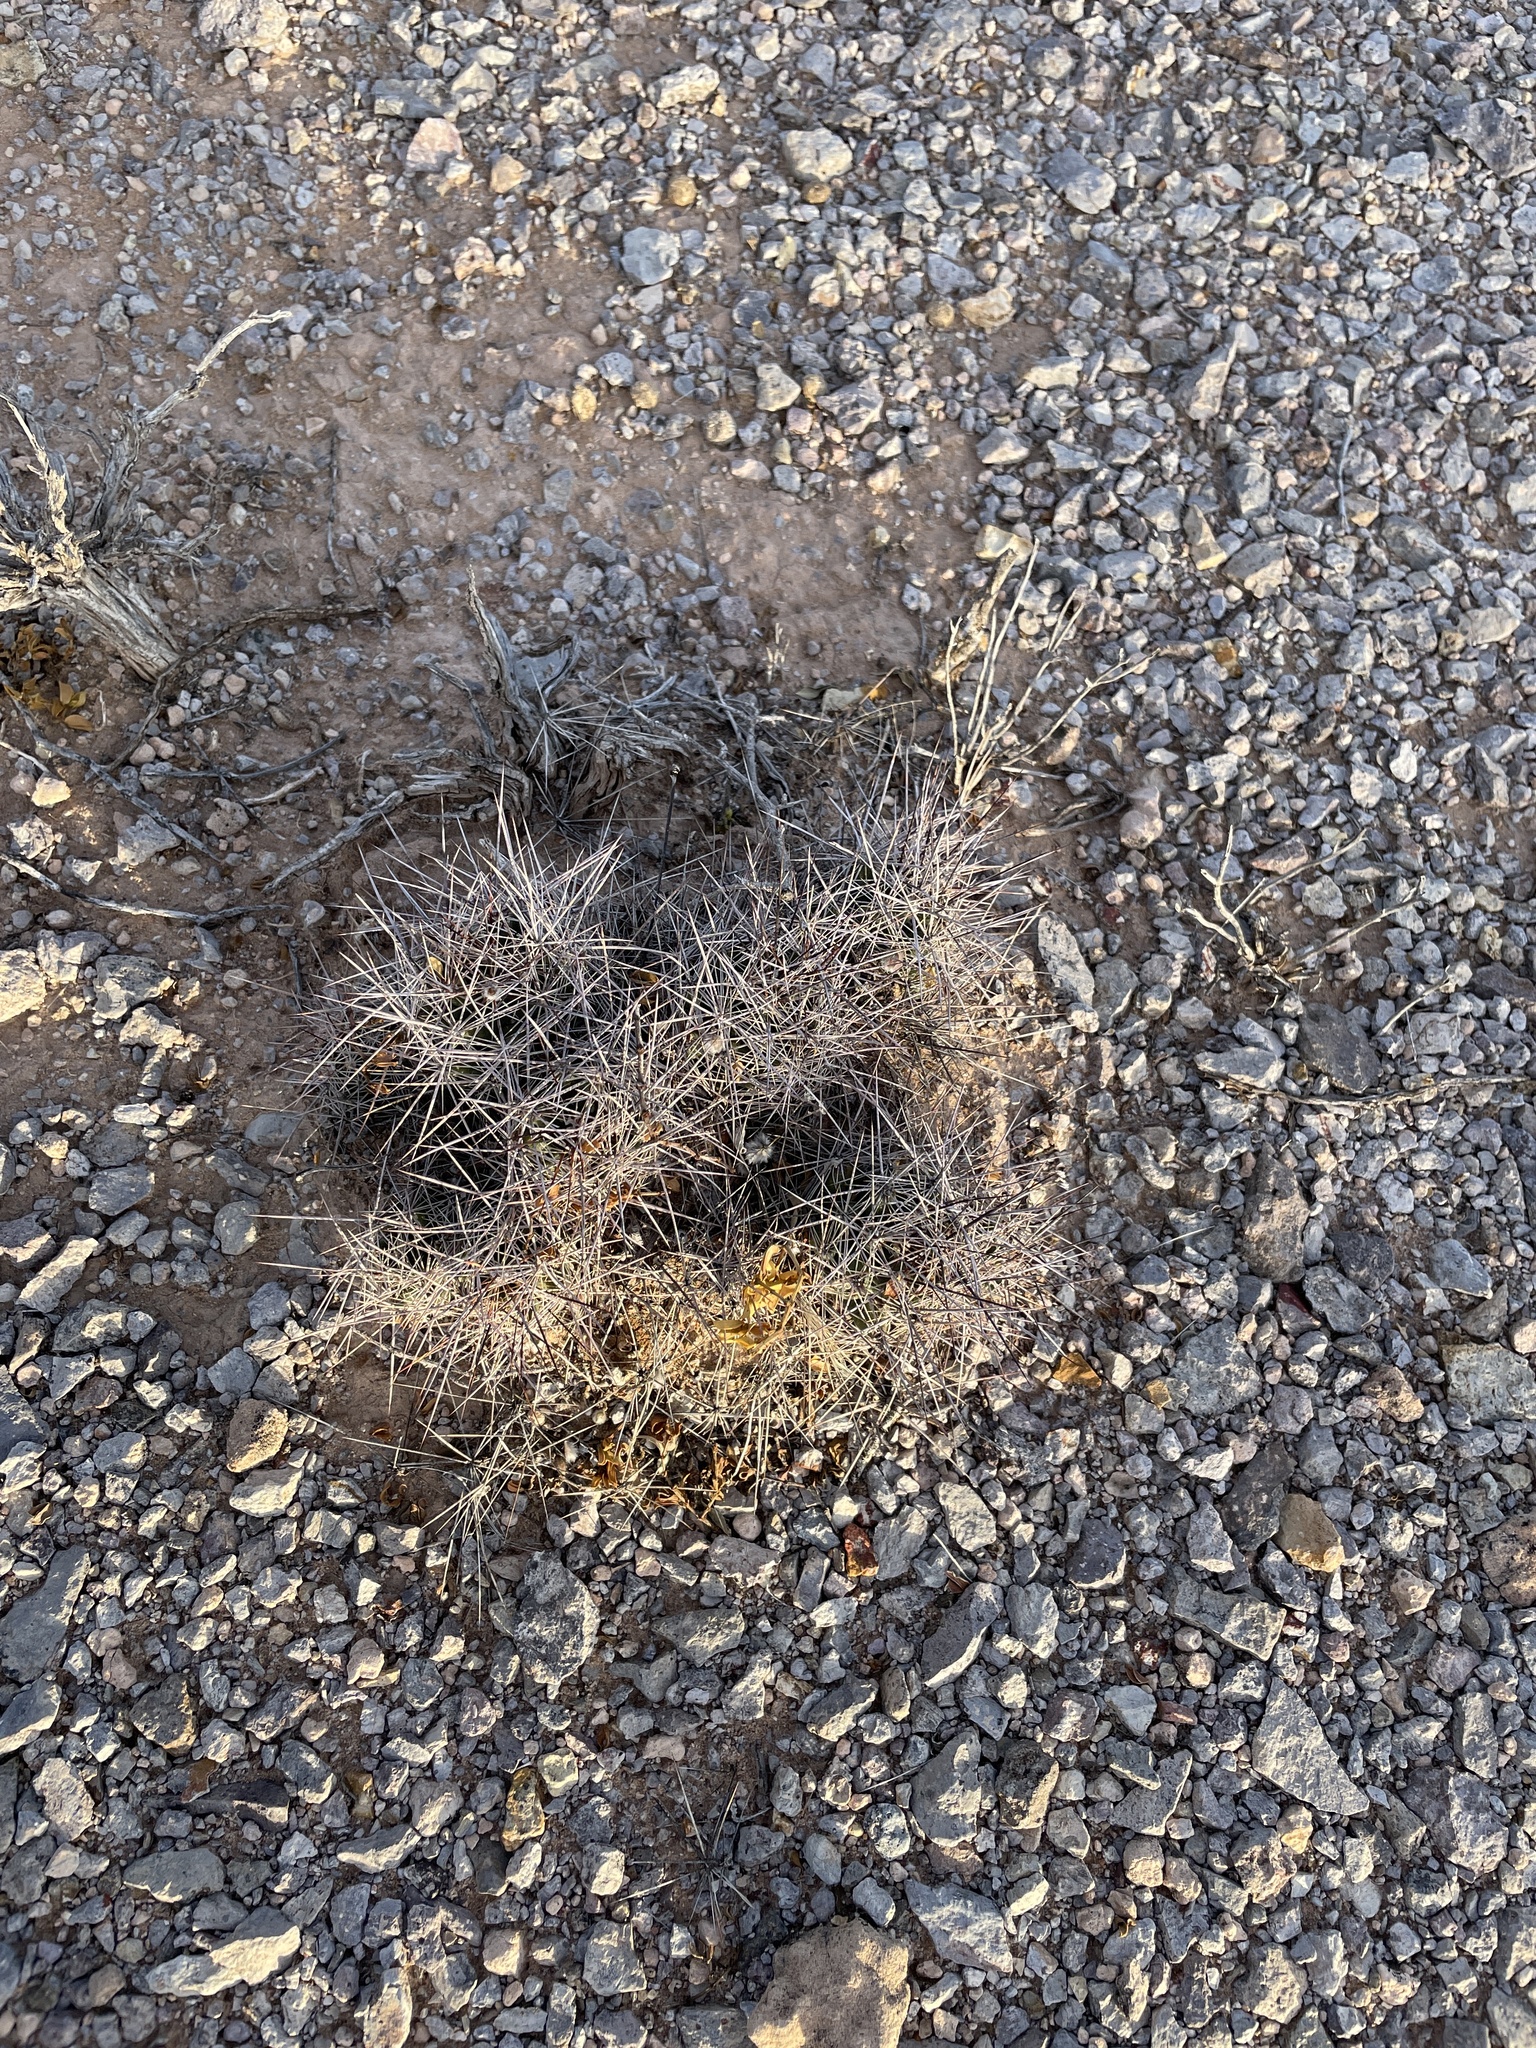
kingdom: Plantae
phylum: Tracheophyta
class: Magnoliopsida
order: Caryophyllales
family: Cactaceae
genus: Echinocereus
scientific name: Echinocereus coccineus
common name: Scarlet hedgehog cactus
